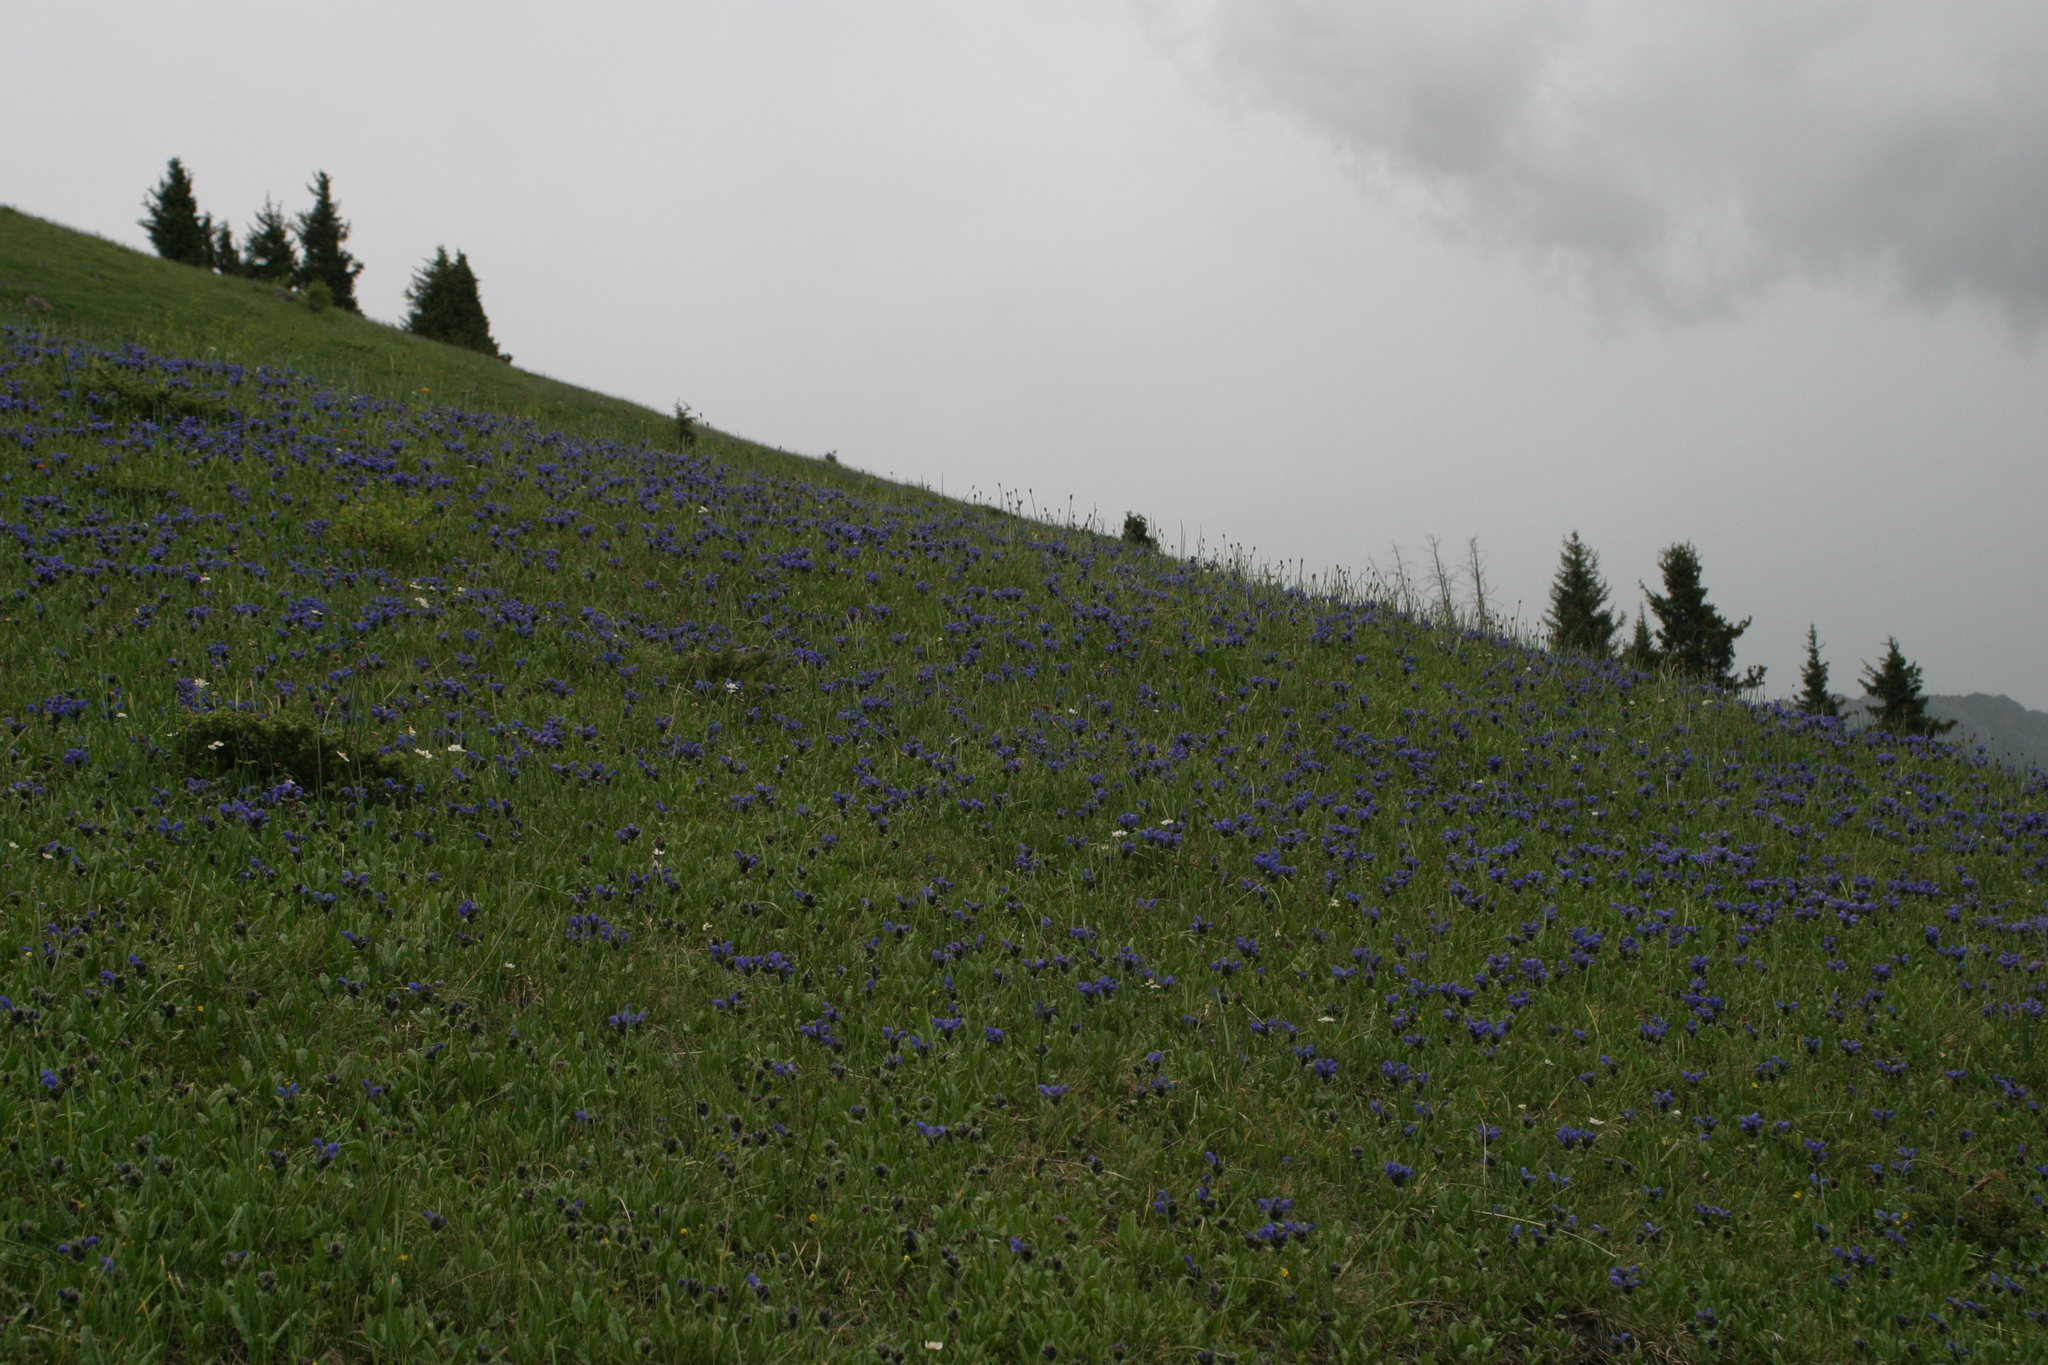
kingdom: Plantae
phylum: Tracheophyta
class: Magnoliopsida
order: Lamiales
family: Lamiaceae
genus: Dracocephalum
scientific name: Dracocephalum grandiflorum
